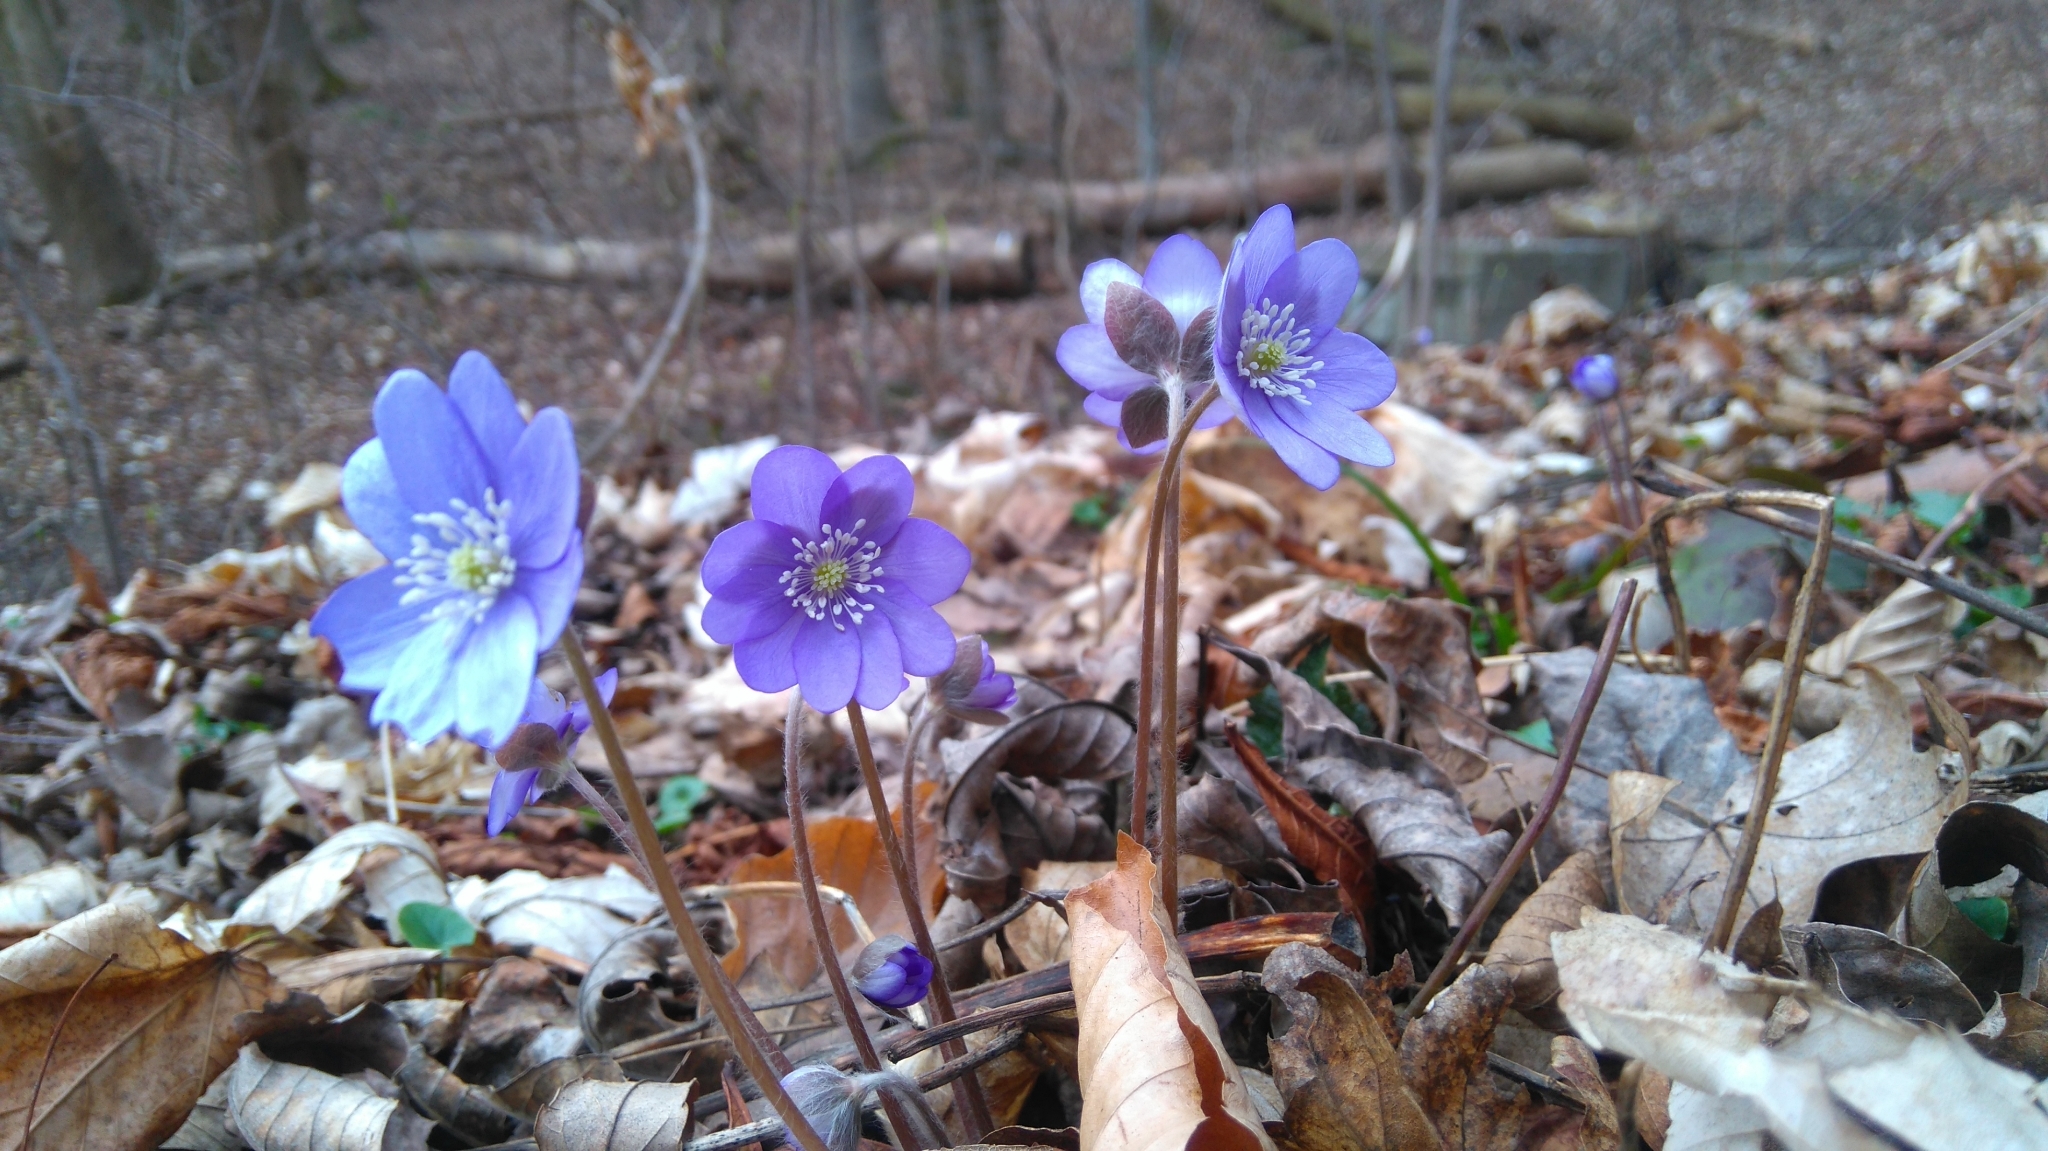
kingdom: Plantae
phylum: Tracheophyta
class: Magnoliopsida
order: Ranunculales
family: Ranunculaceae
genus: Hepatica
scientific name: Hepatica nobilis
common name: Liverleaf
